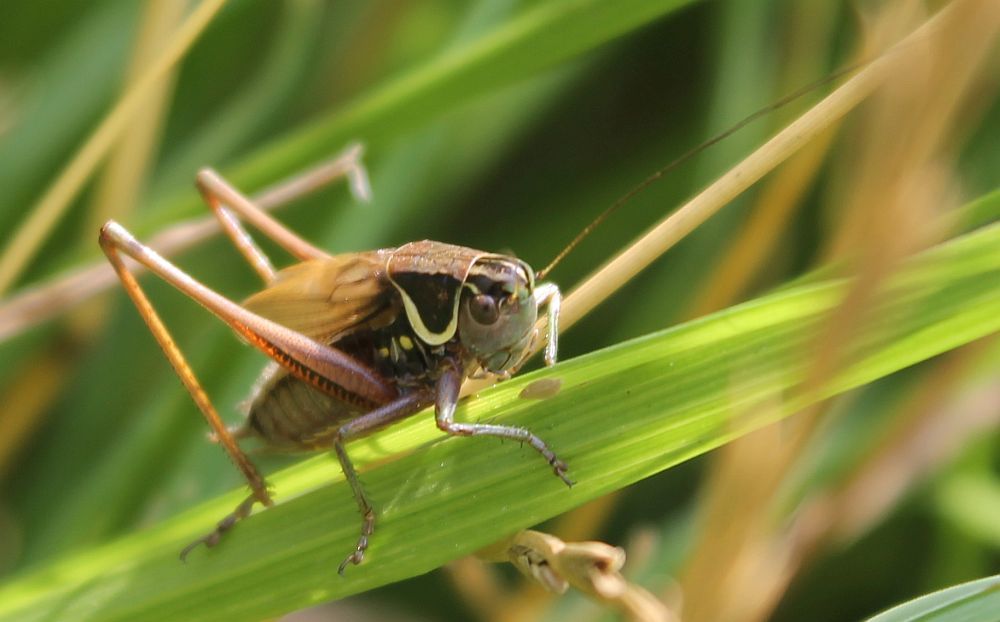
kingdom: Animalia
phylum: Arthropoda
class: Insecta
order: Orthoptera
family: Tettigoniidae
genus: Roeseliana
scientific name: Roeseliana roeselii
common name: Roesel's bush cricket
